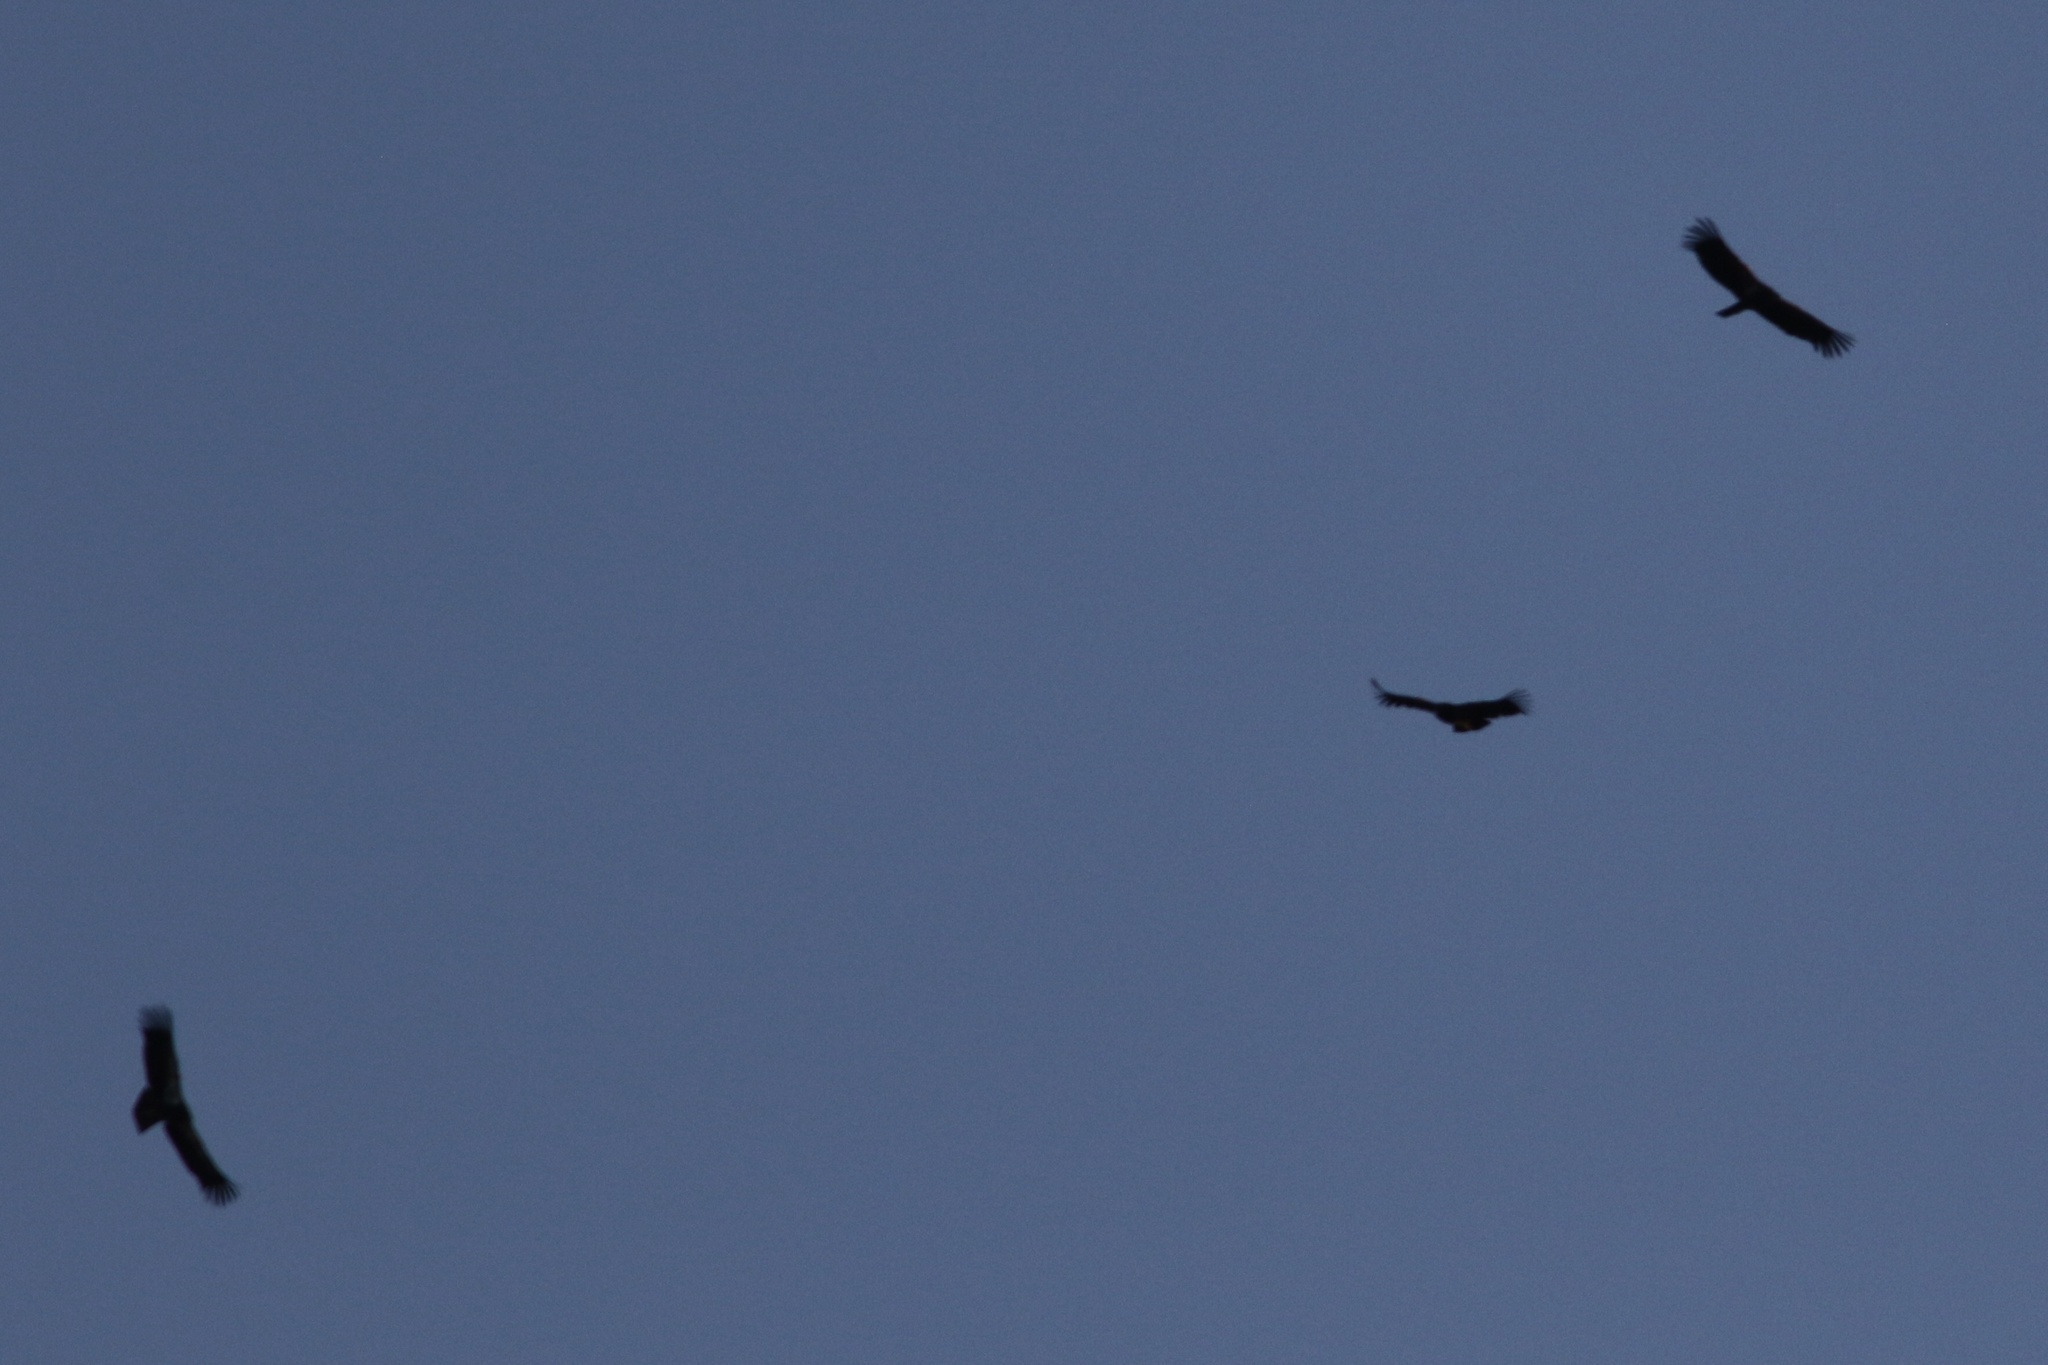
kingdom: Animalia
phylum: Chordata
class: Aves
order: Accipitriformes
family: Cathartidae
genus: Gymnogyps
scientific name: Gymnogyps californianus
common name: California condor
